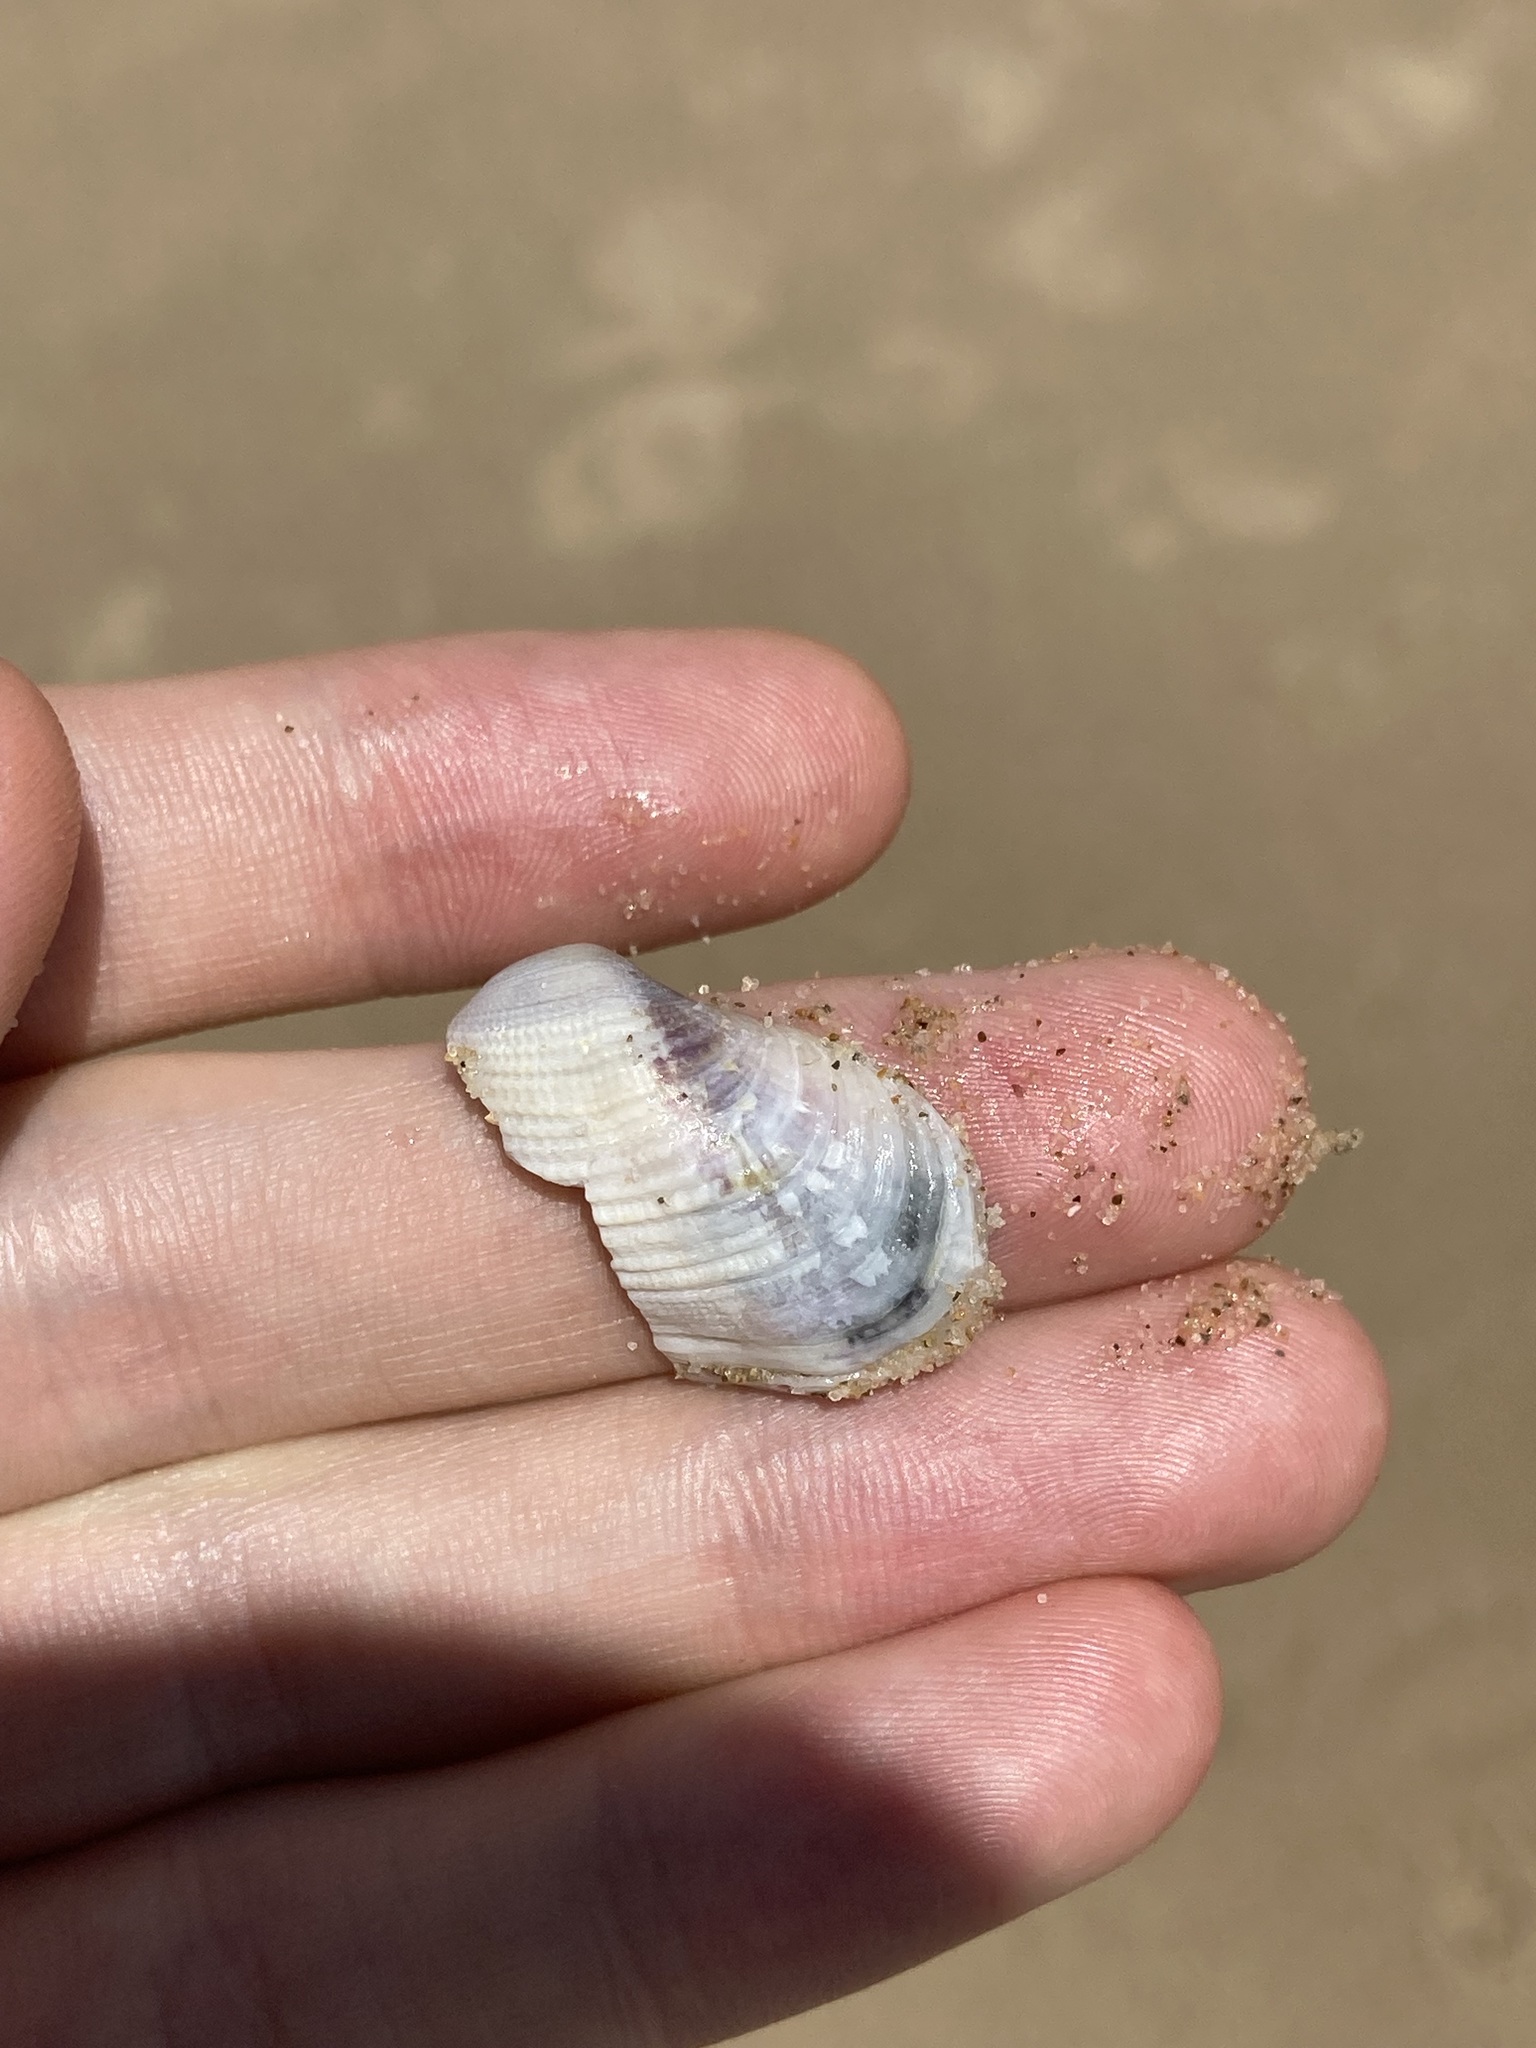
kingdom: Animalia
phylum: Mollusca
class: Bivalvia
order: Venerida
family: Veneridae
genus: Irus
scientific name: Irus crenatus
